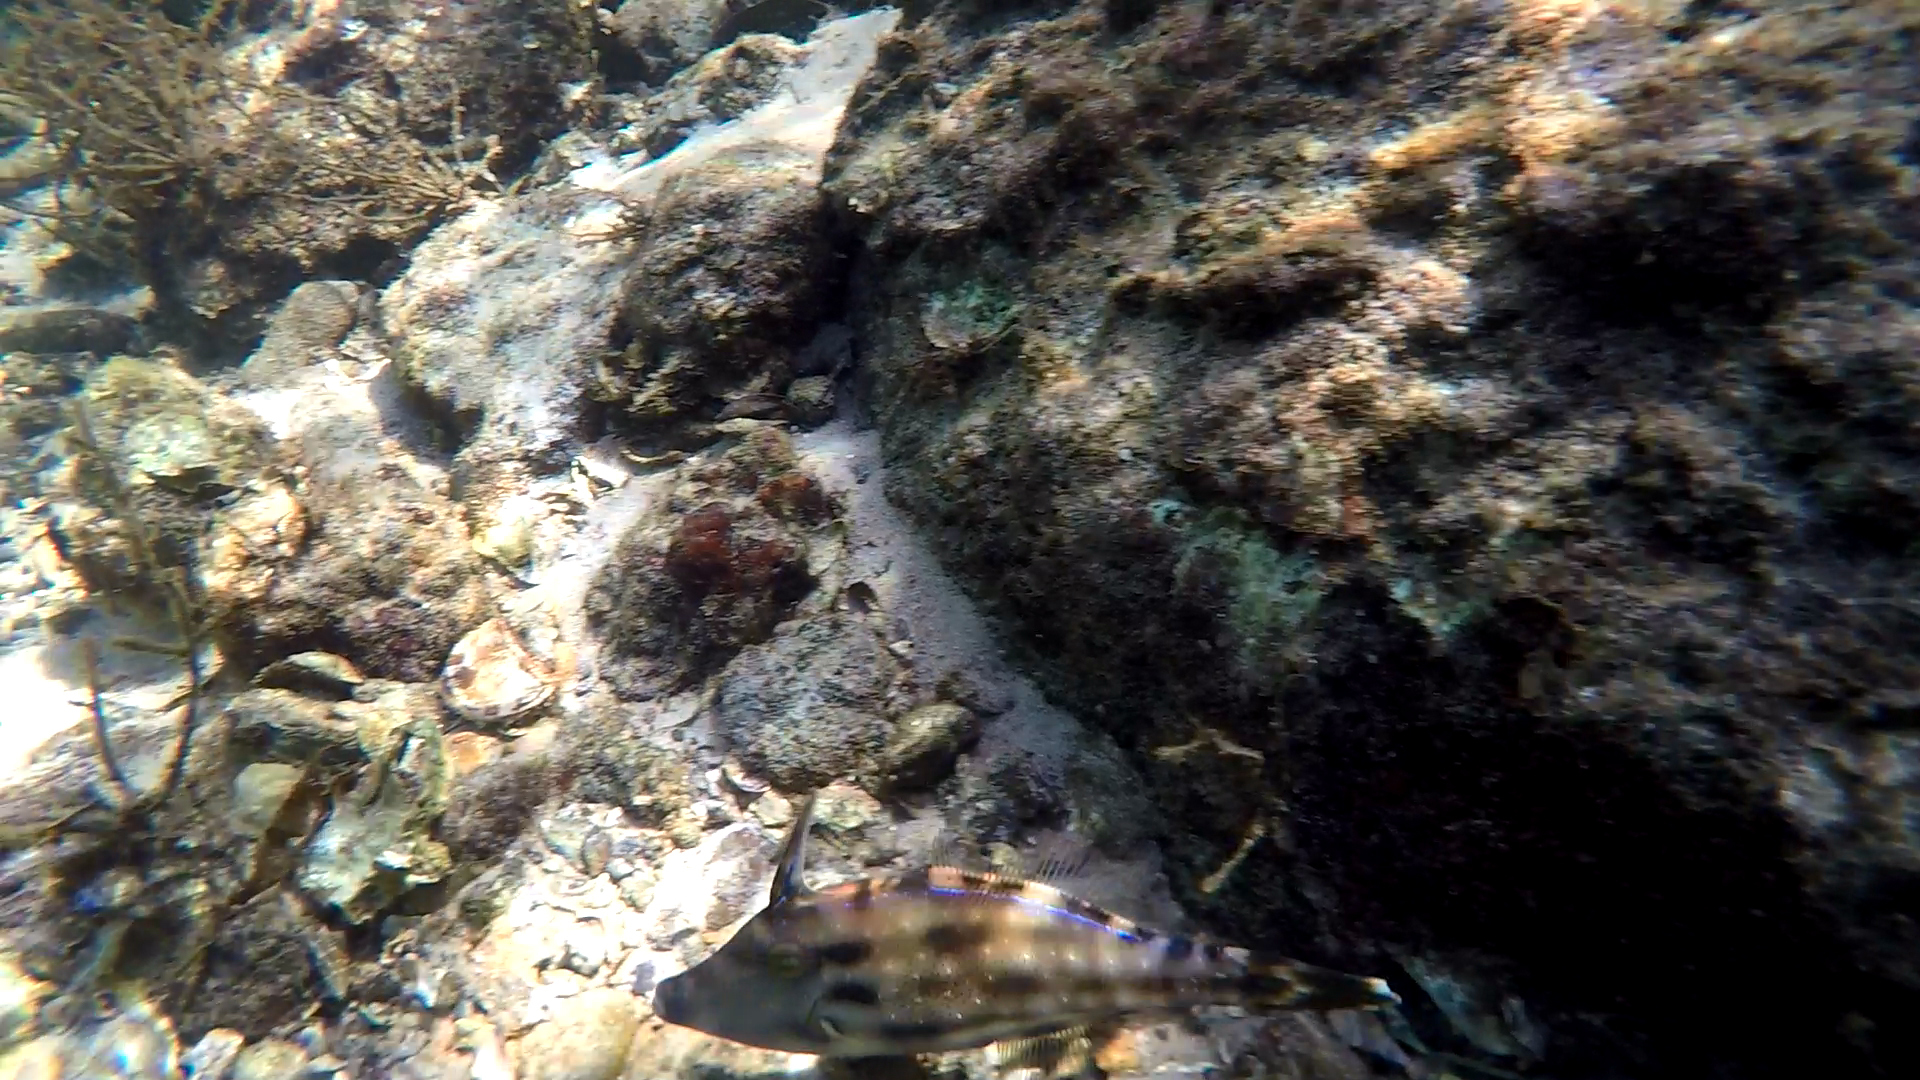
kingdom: Animalia
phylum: Chordata
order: Tetraodontiformes
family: Monacanthidae
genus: Meuschenia
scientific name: Meuschenia trachylepis
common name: Yellowfin leatherjacket
